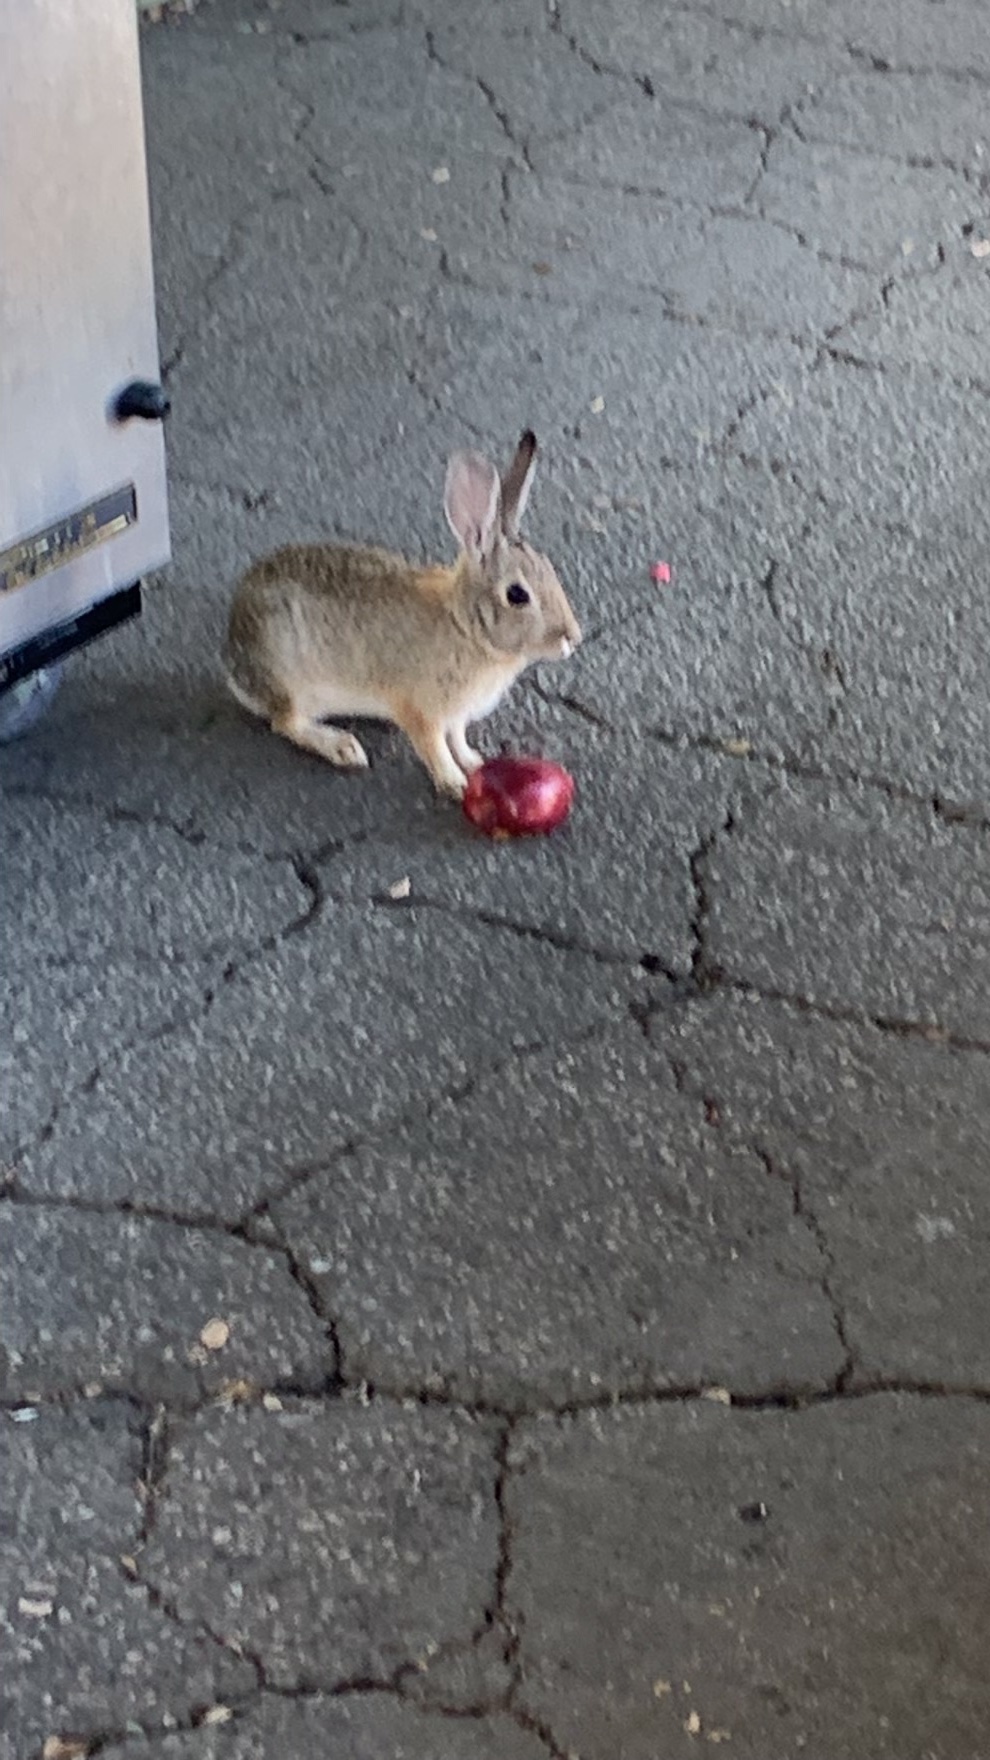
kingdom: Animalia
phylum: Chordata
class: Mammalia
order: Lagomorpha
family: Leporidae
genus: Sylvilagus
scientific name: Sylvilagus audubonii
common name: Desert cottontail
